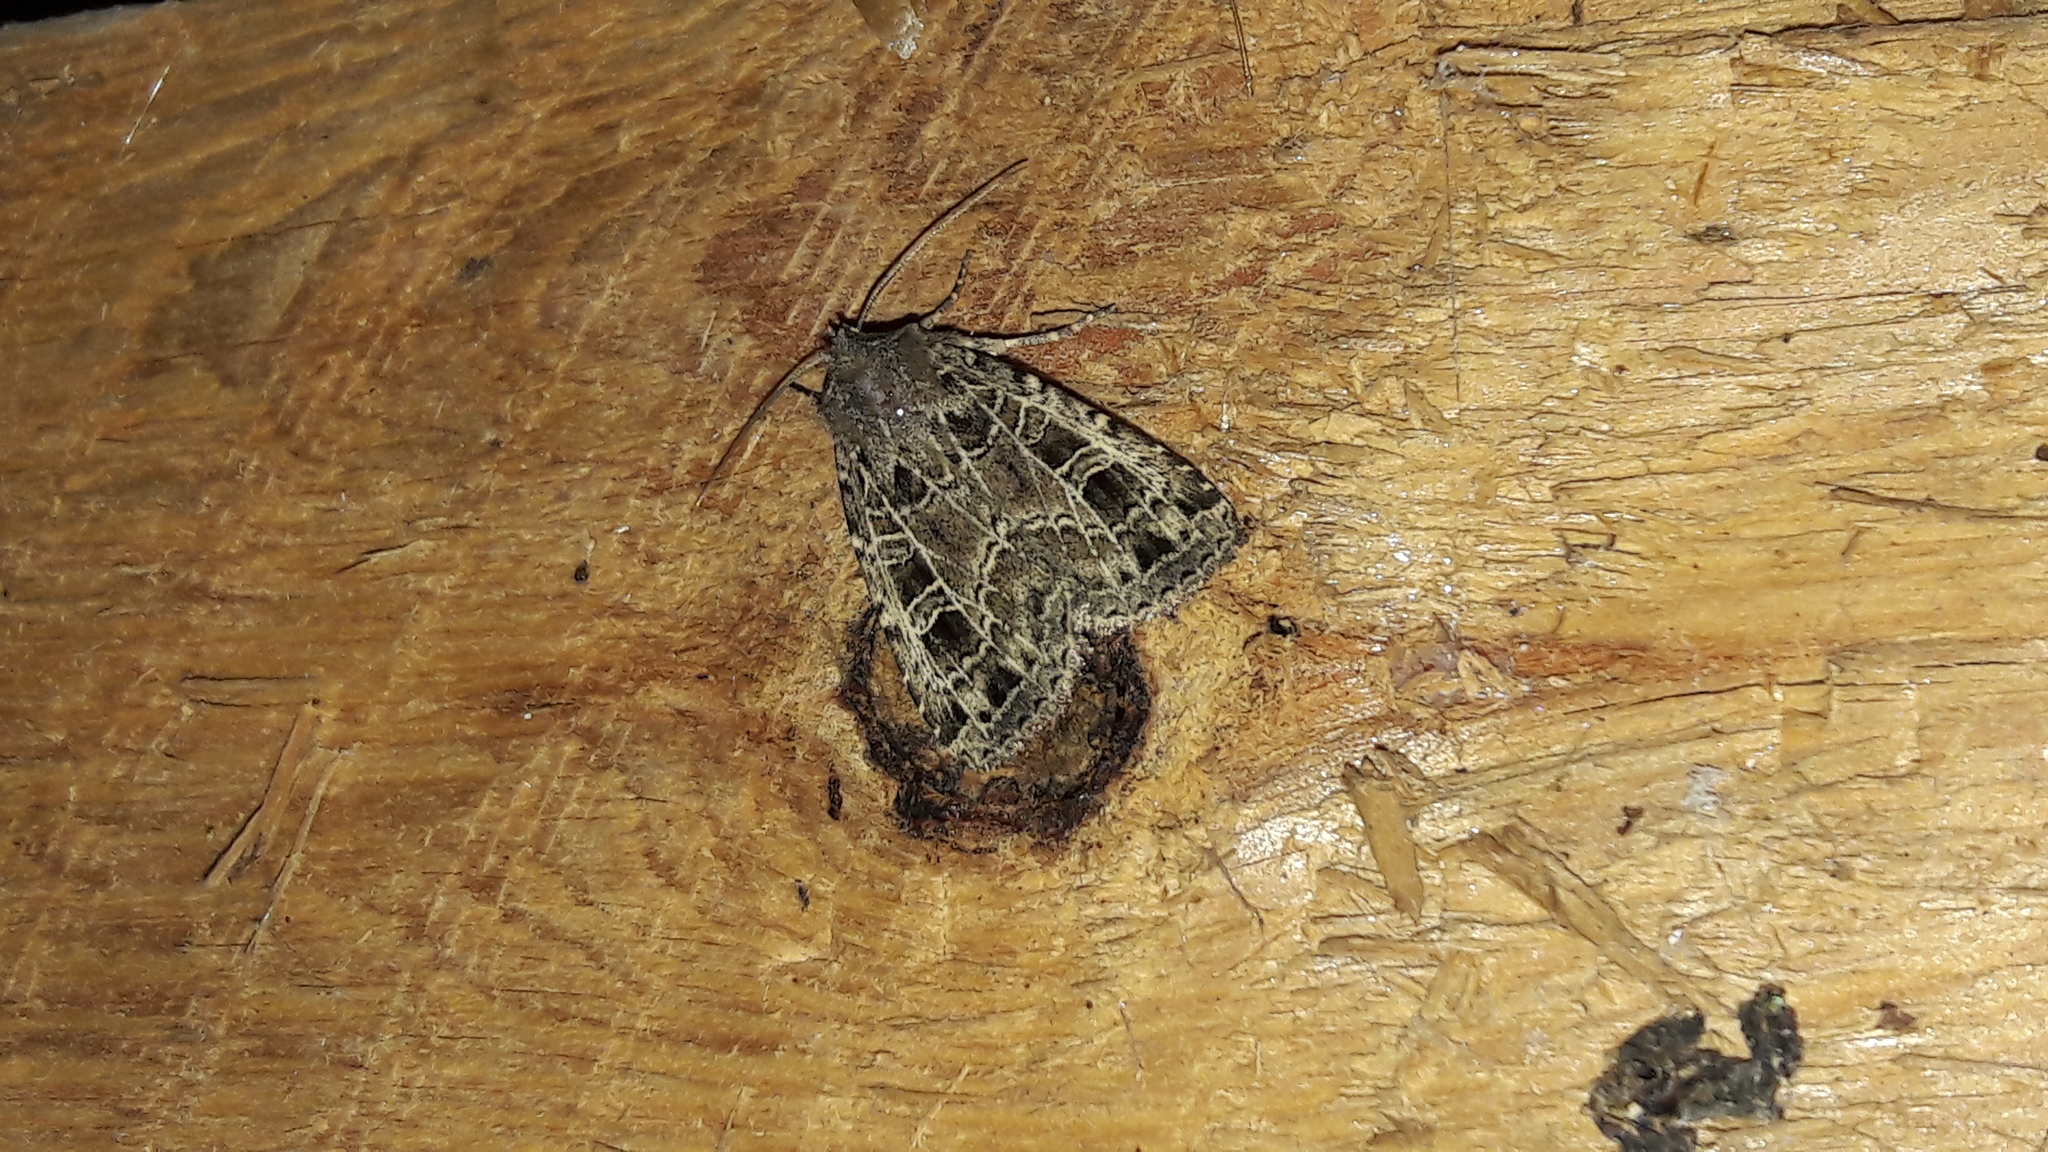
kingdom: Animalia
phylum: Arthropoda
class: Insecta
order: Lepidoptera
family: Noctuidae
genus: Naenia
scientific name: Naenia typica
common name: Gothic
